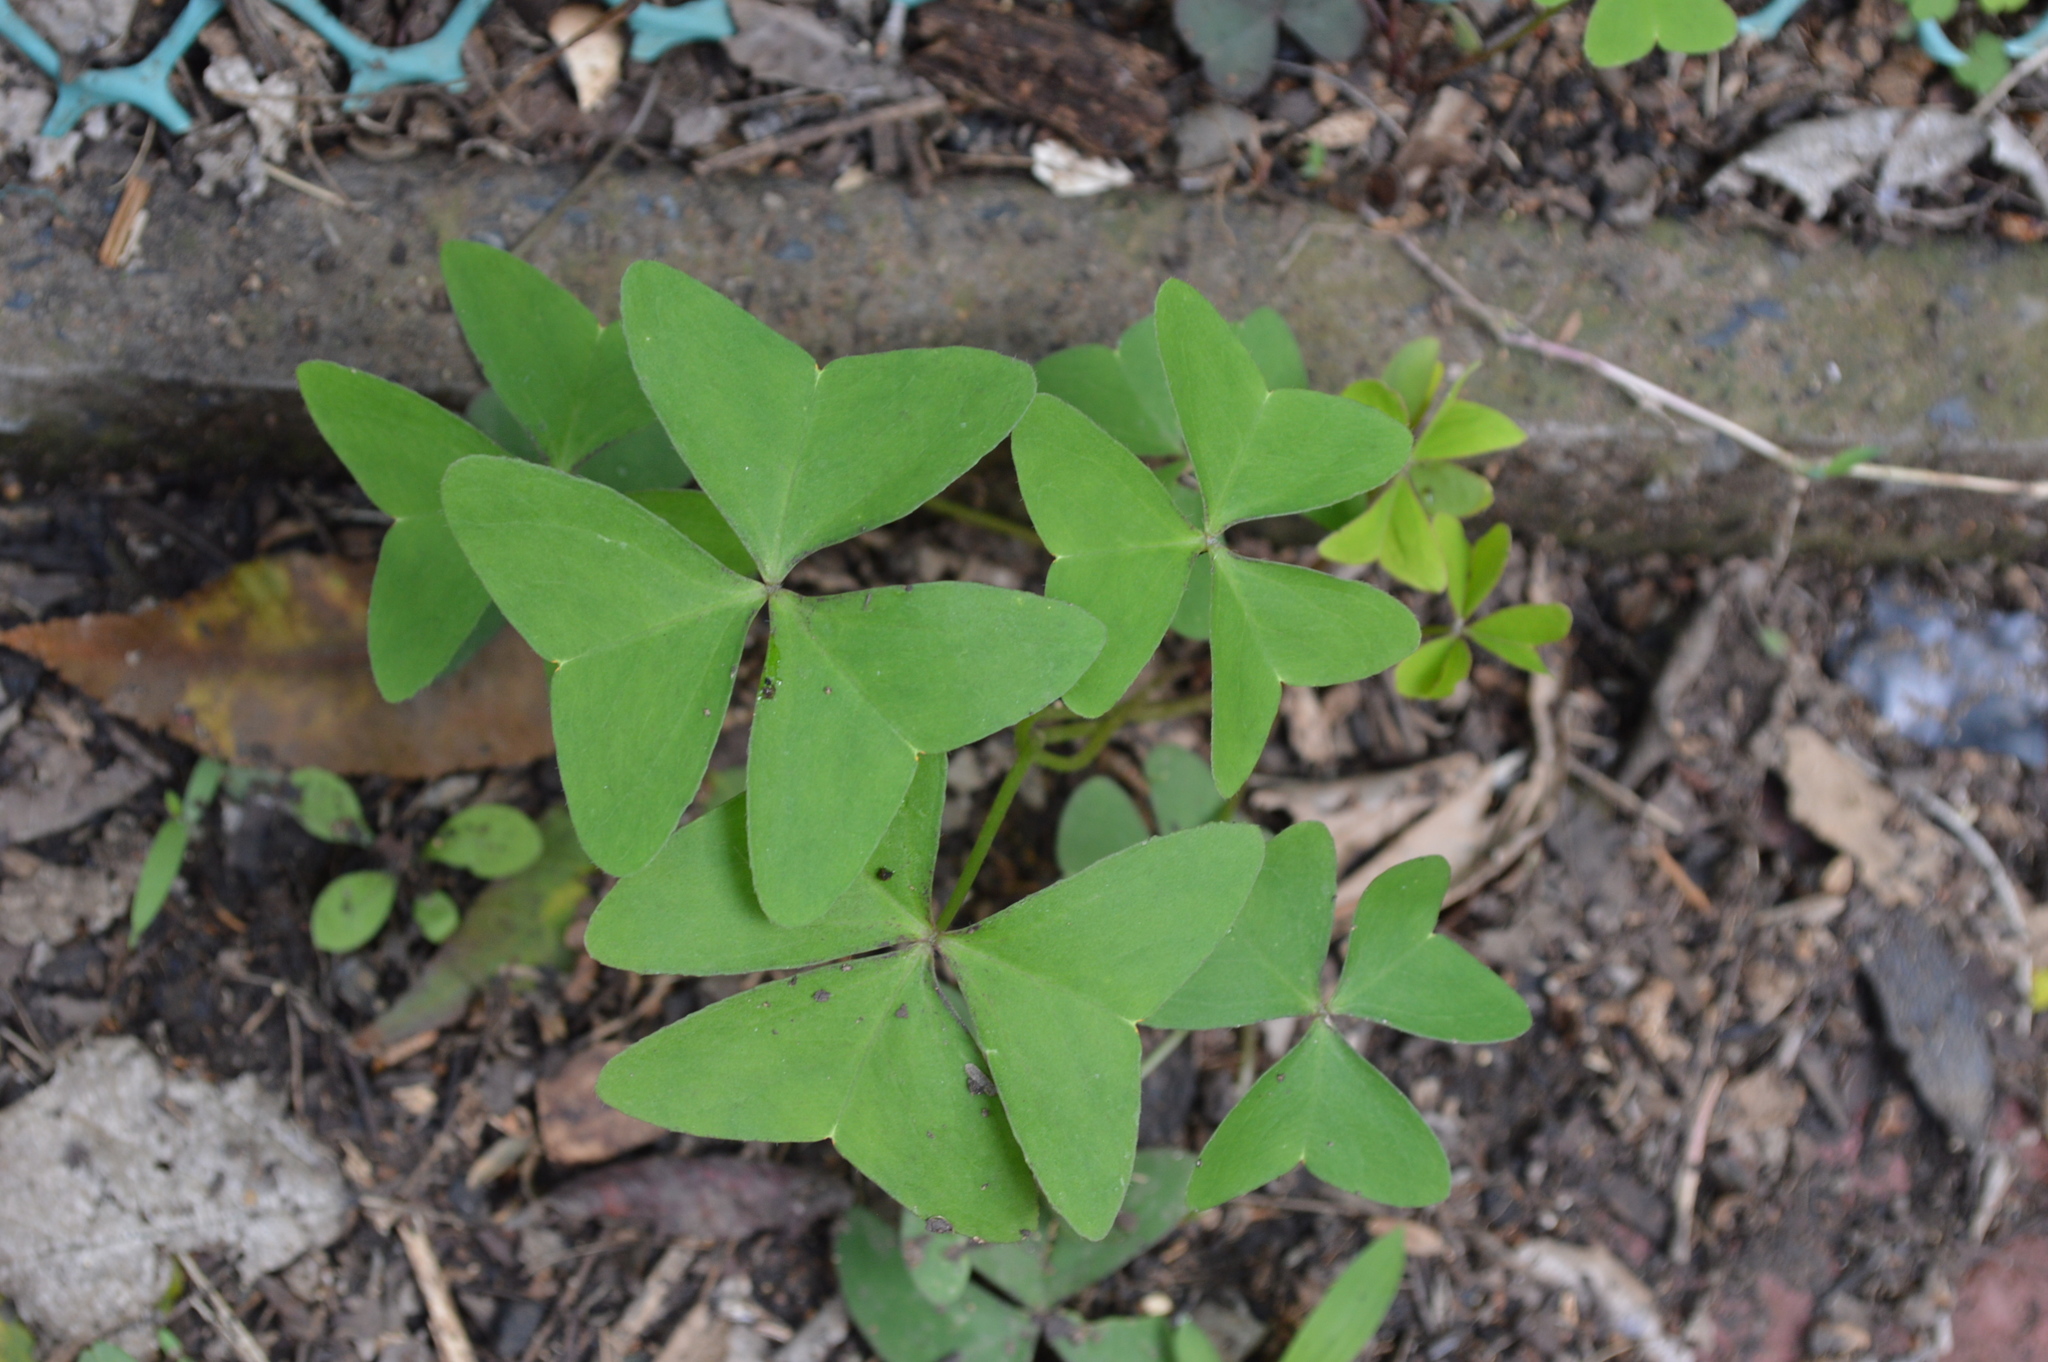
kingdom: Plantae
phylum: Tracheophyta
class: Magnoliopsida
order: Oxalidales
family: Oxalidaceae
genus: Oxalis
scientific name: Oxalis latifolia
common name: Garden pink-sorrel
